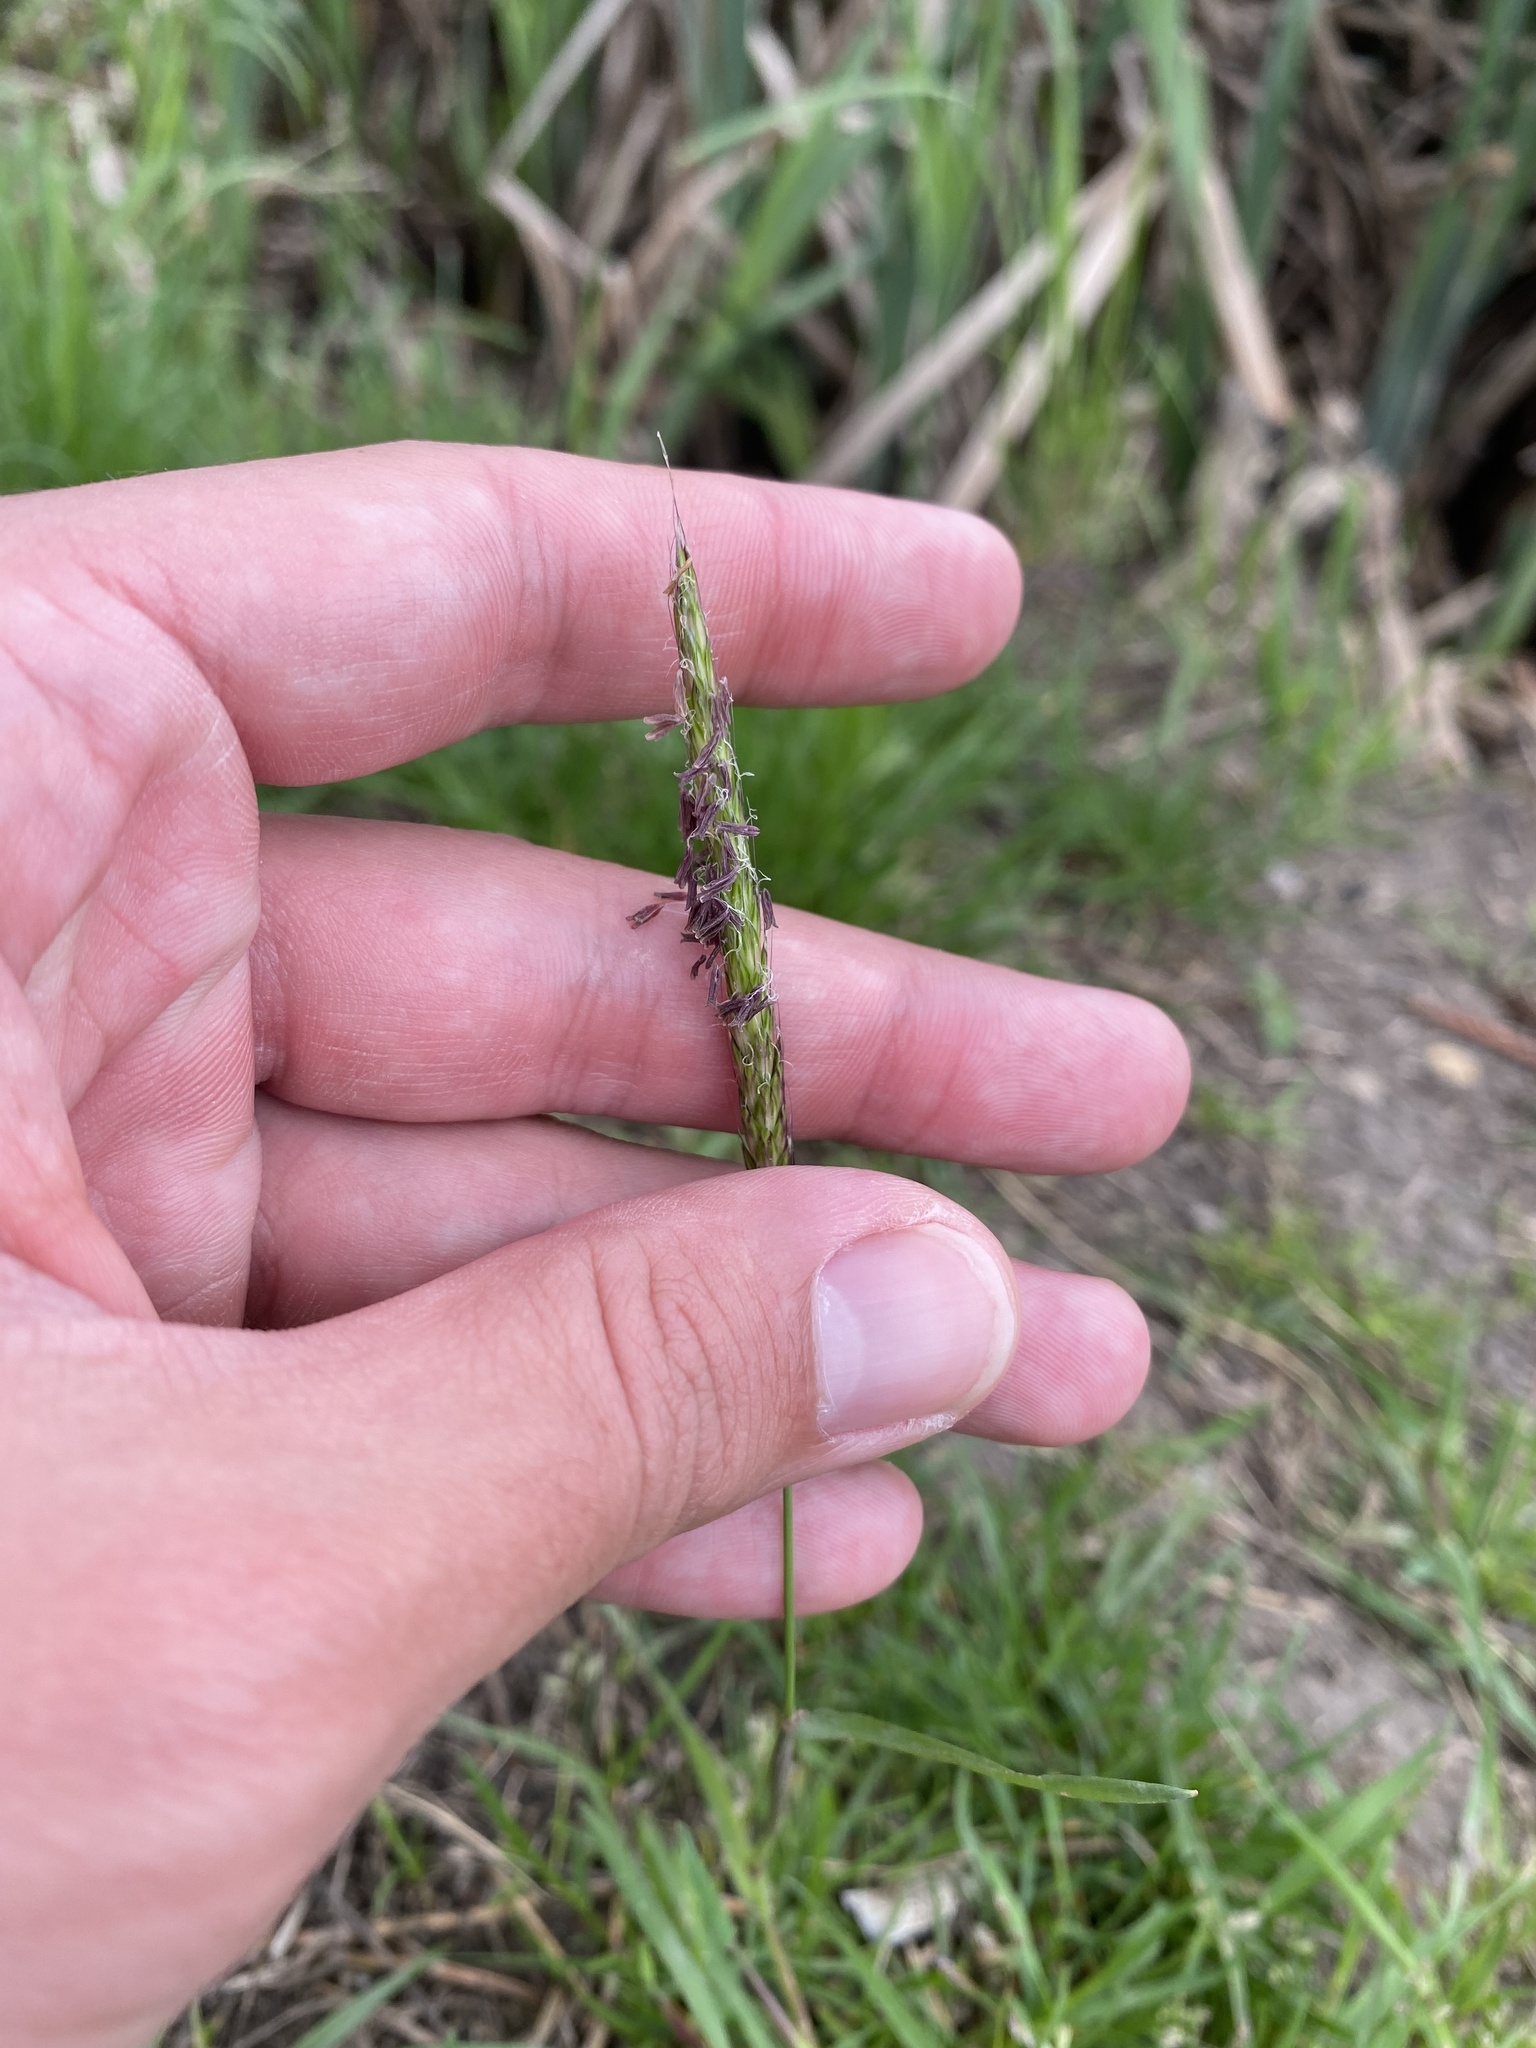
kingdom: Plantae
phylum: Tracheophyta
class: Liliopsida
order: Poales
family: Poaceae
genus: Alopecurus
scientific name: Alopecurus myosuroides
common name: Black-grass
